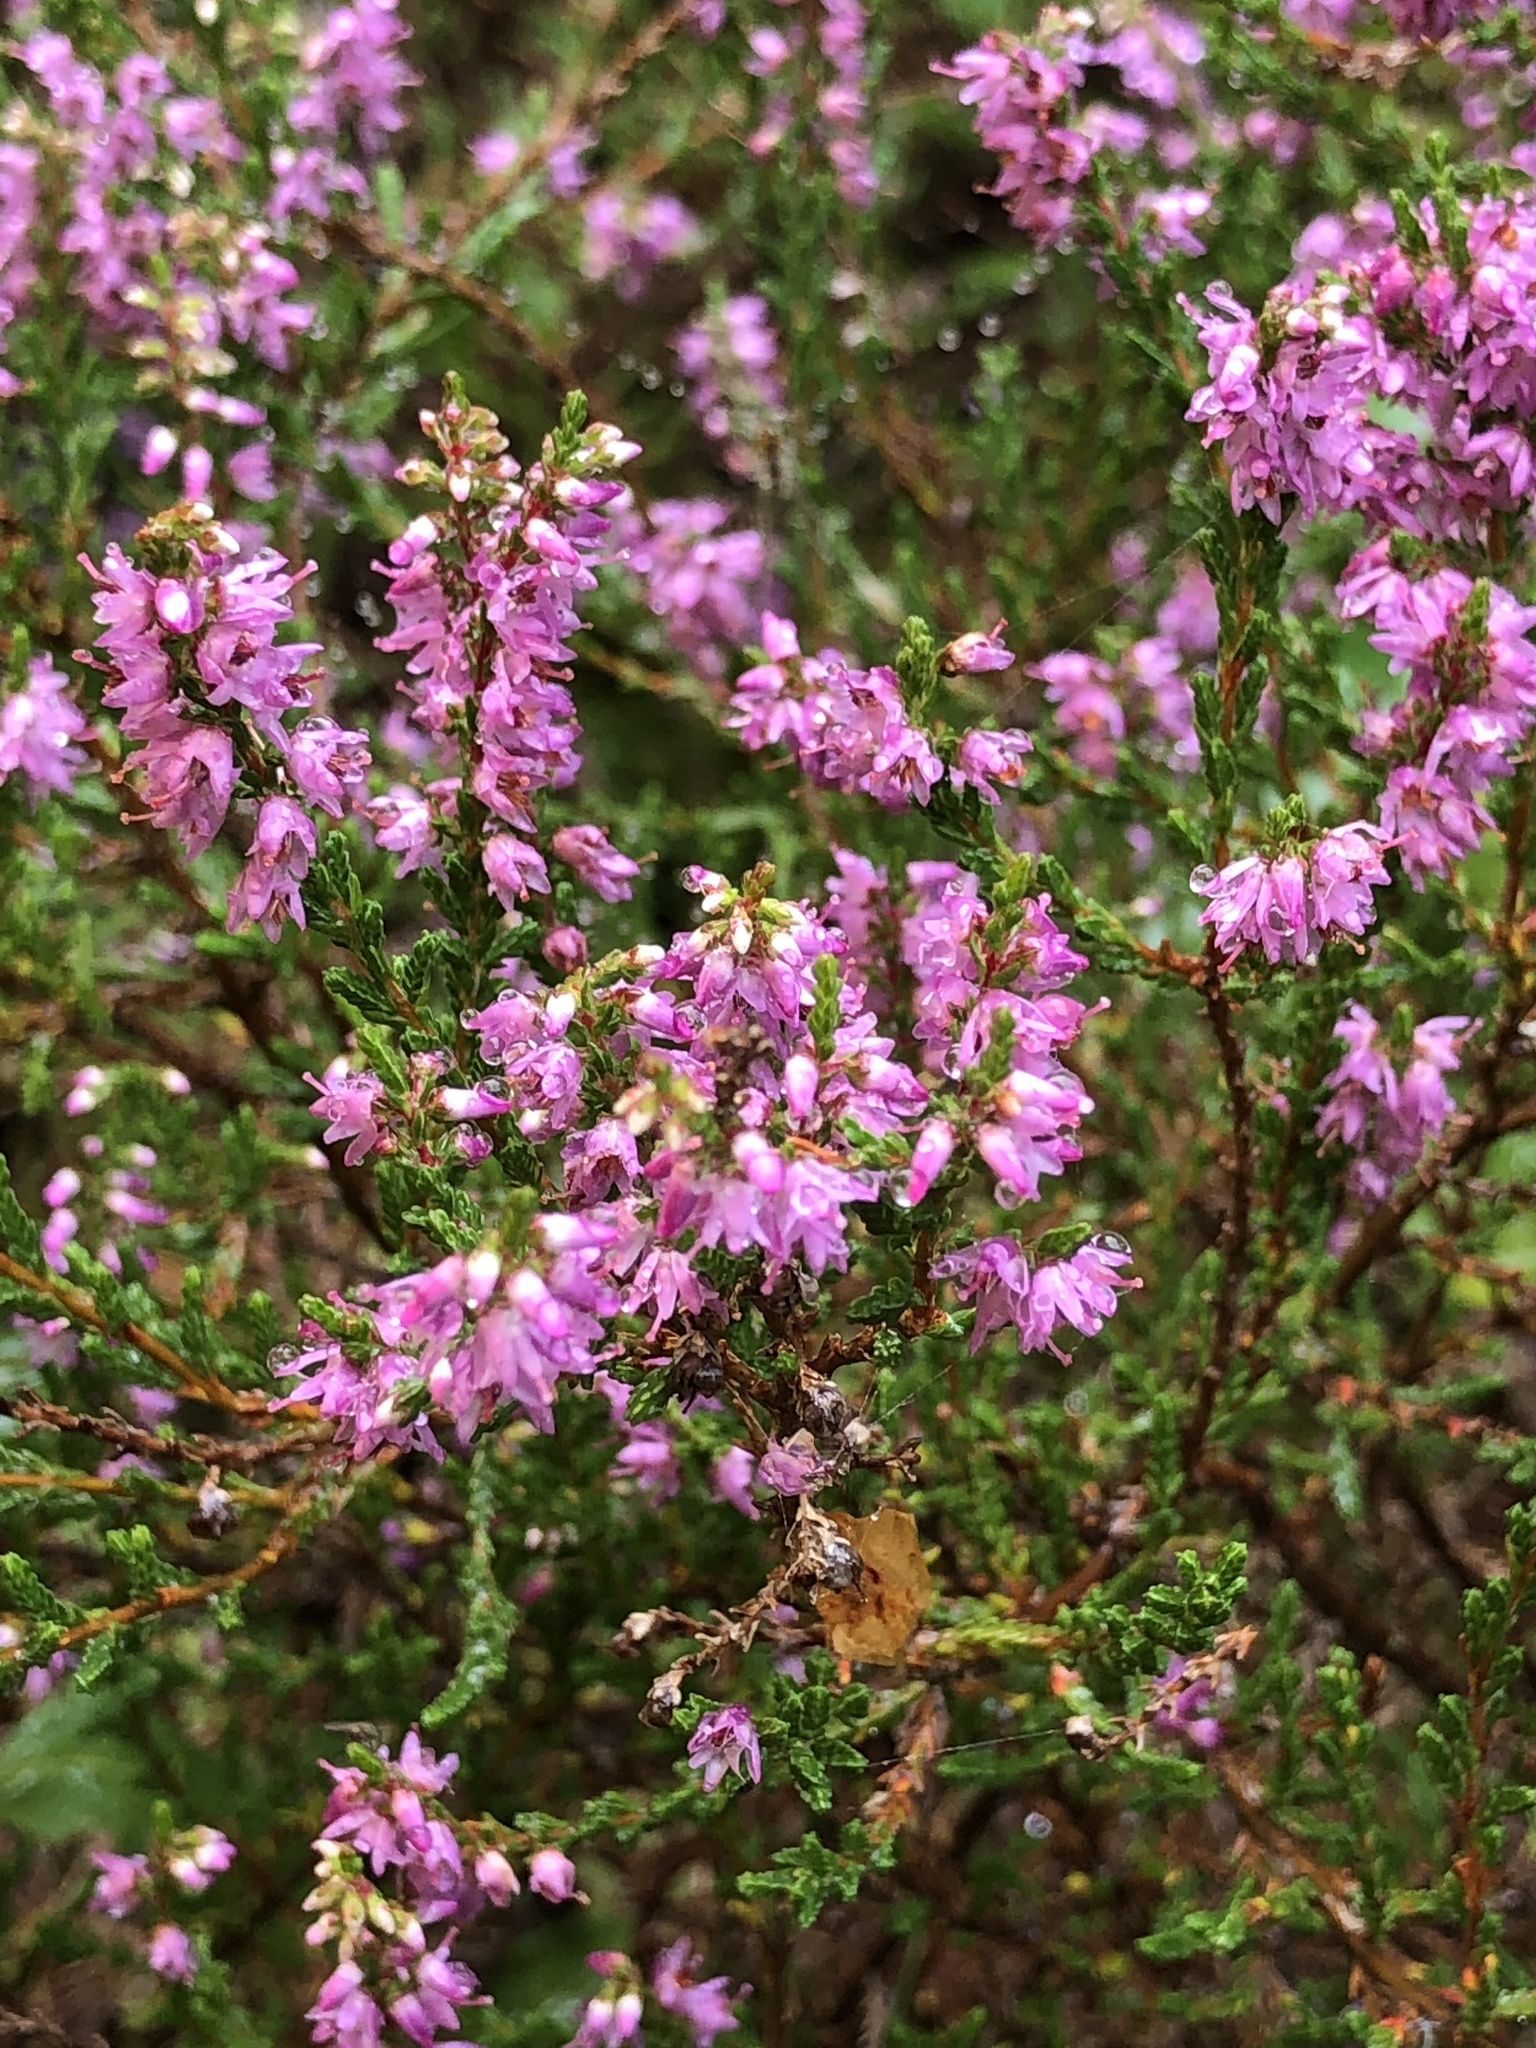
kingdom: Plantae
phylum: Tracheophyta
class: Magnoliopsida
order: Ericales
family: Ericaceae
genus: Calluna
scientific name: Calluna vulgaris
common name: Heather
